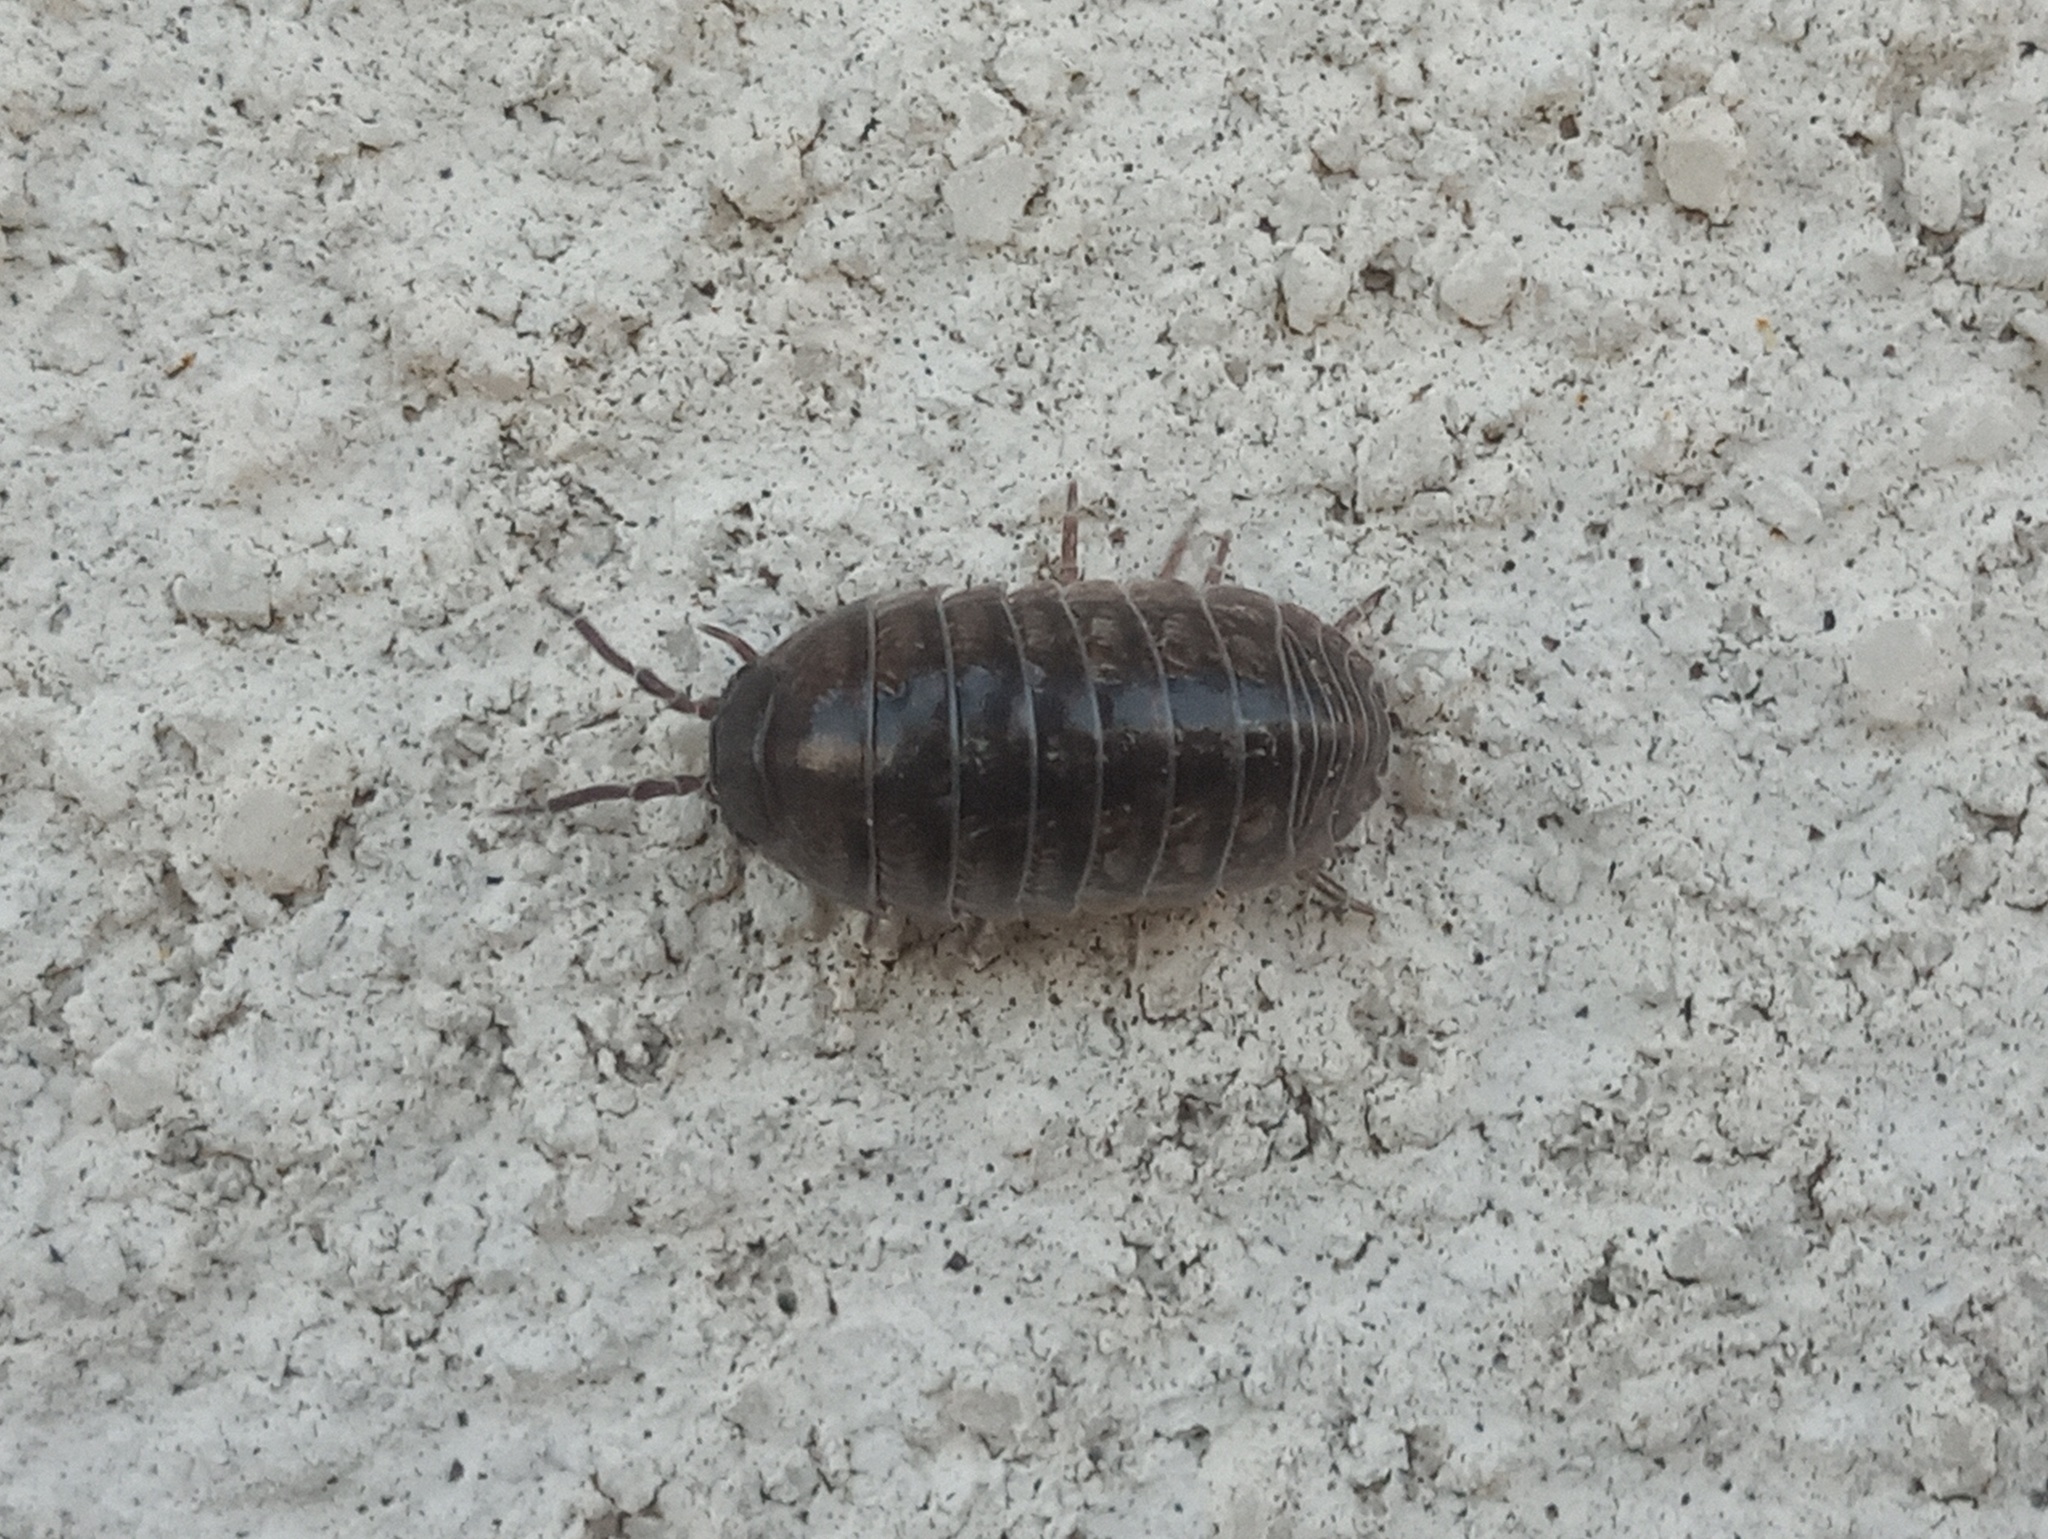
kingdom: Animalia
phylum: Arthropoda
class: Malacostraca
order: Isopoda
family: Armadillidiidae
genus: Armadillidium
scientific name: Armadillidium vulgare
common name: Common pill woodlouse
